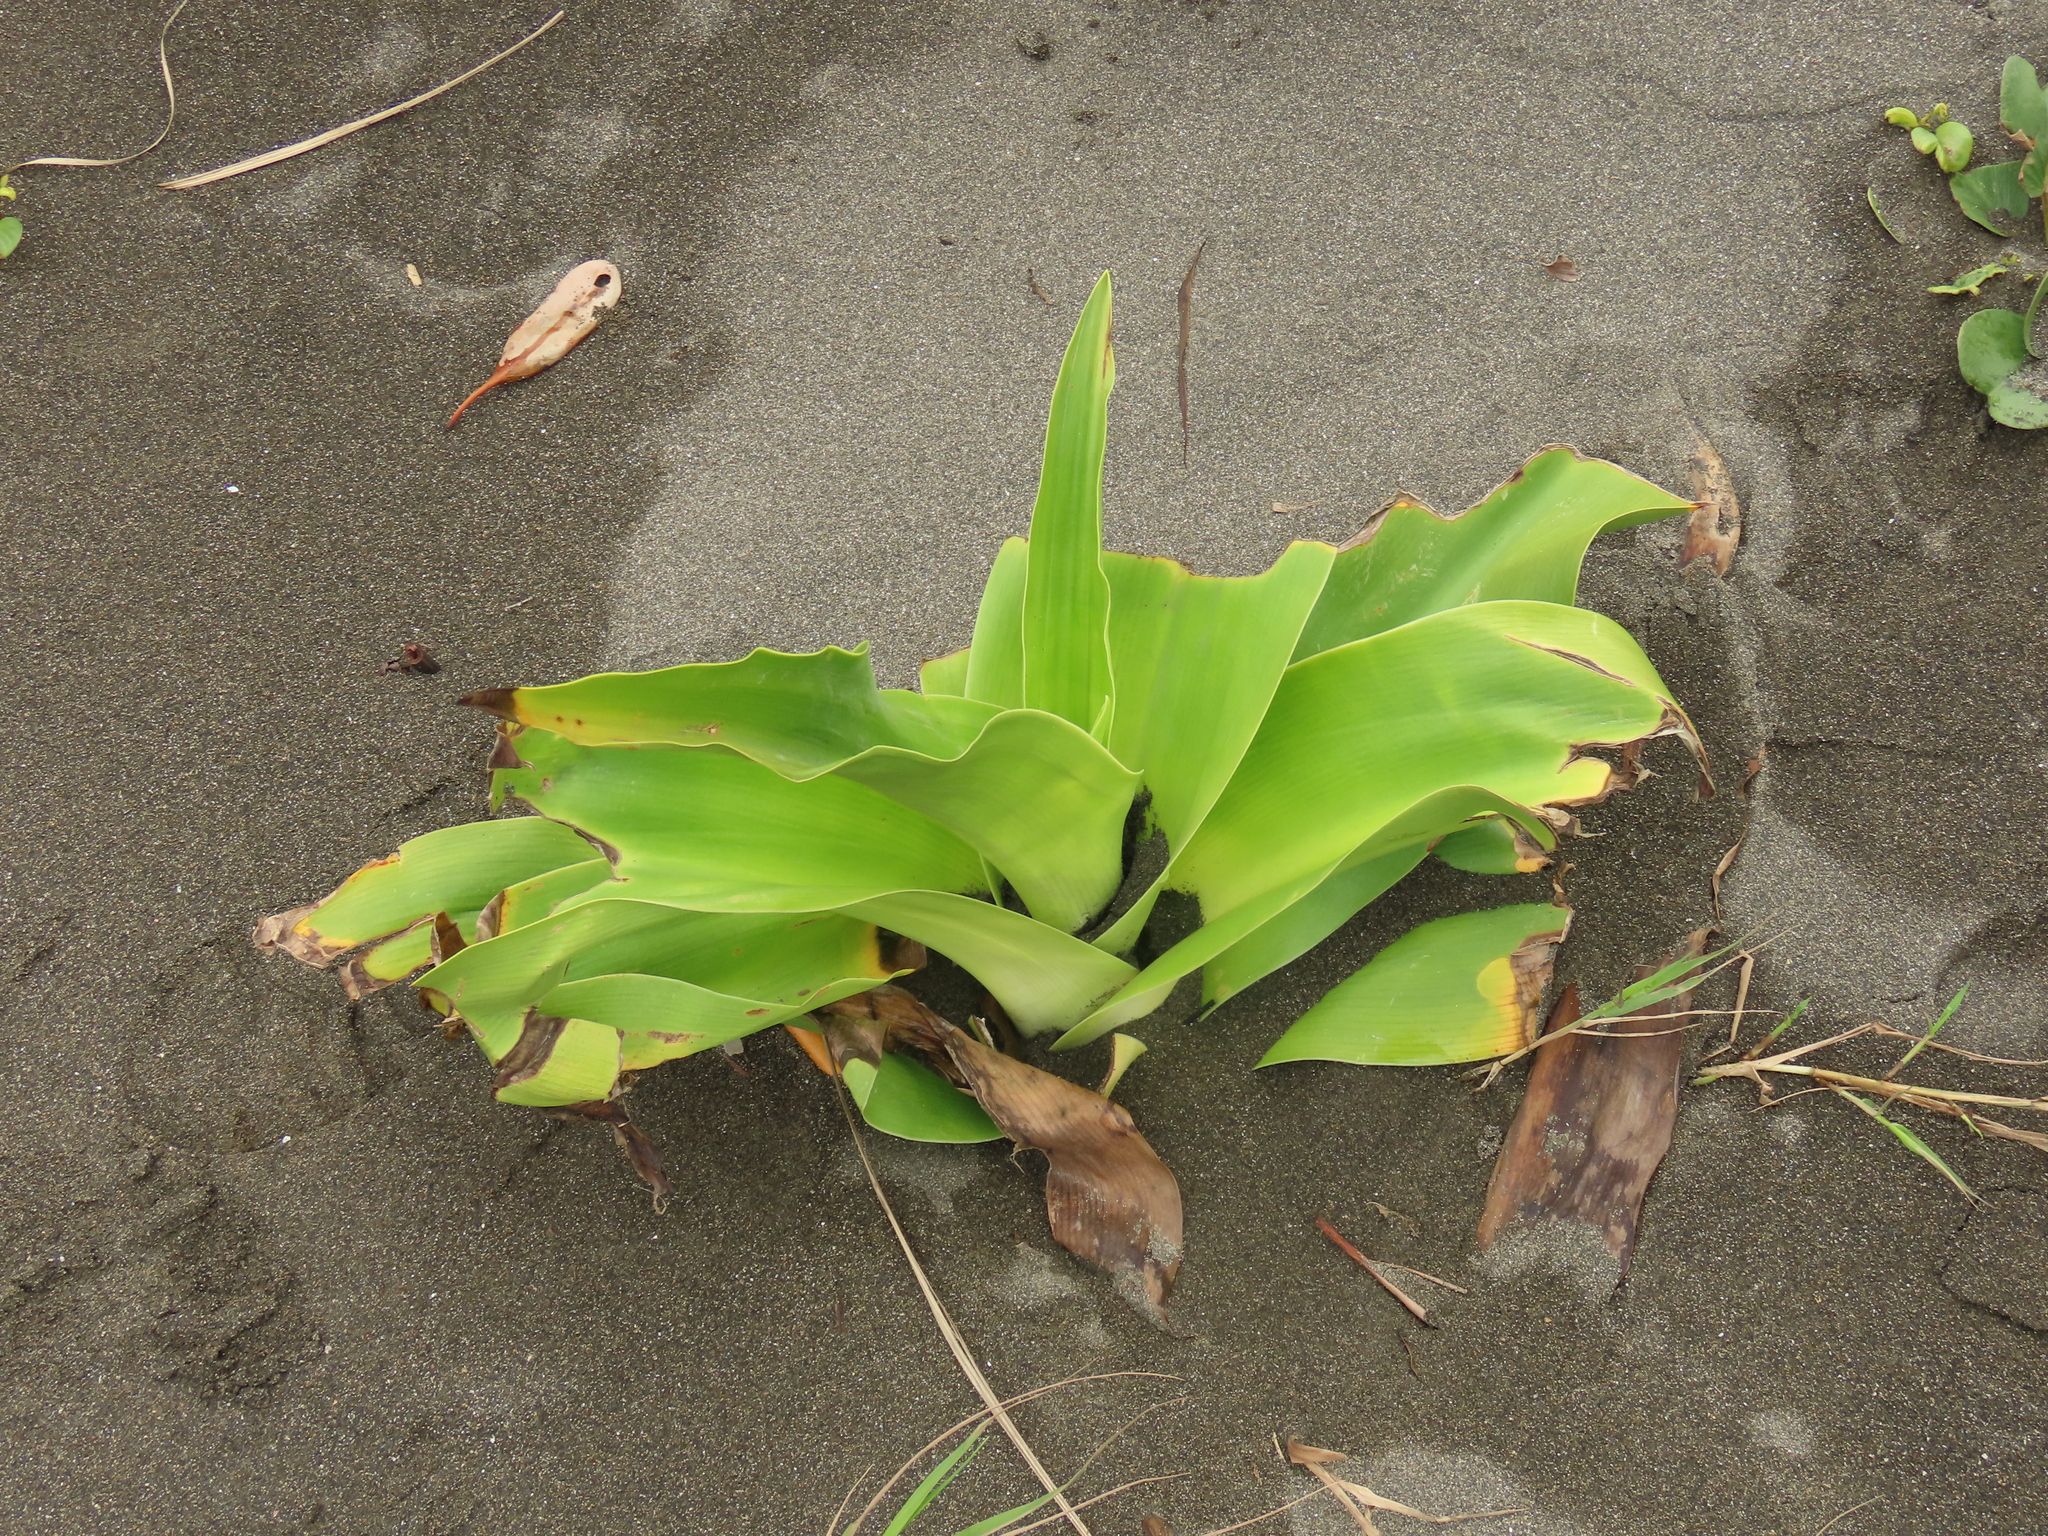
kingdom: Plantae
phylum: Tracheophyta
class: Liliopsida
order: Asparagales
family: Amaryllidaceae
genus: Crinum
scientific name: Crinum asiaticum
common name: Poisonbulb
